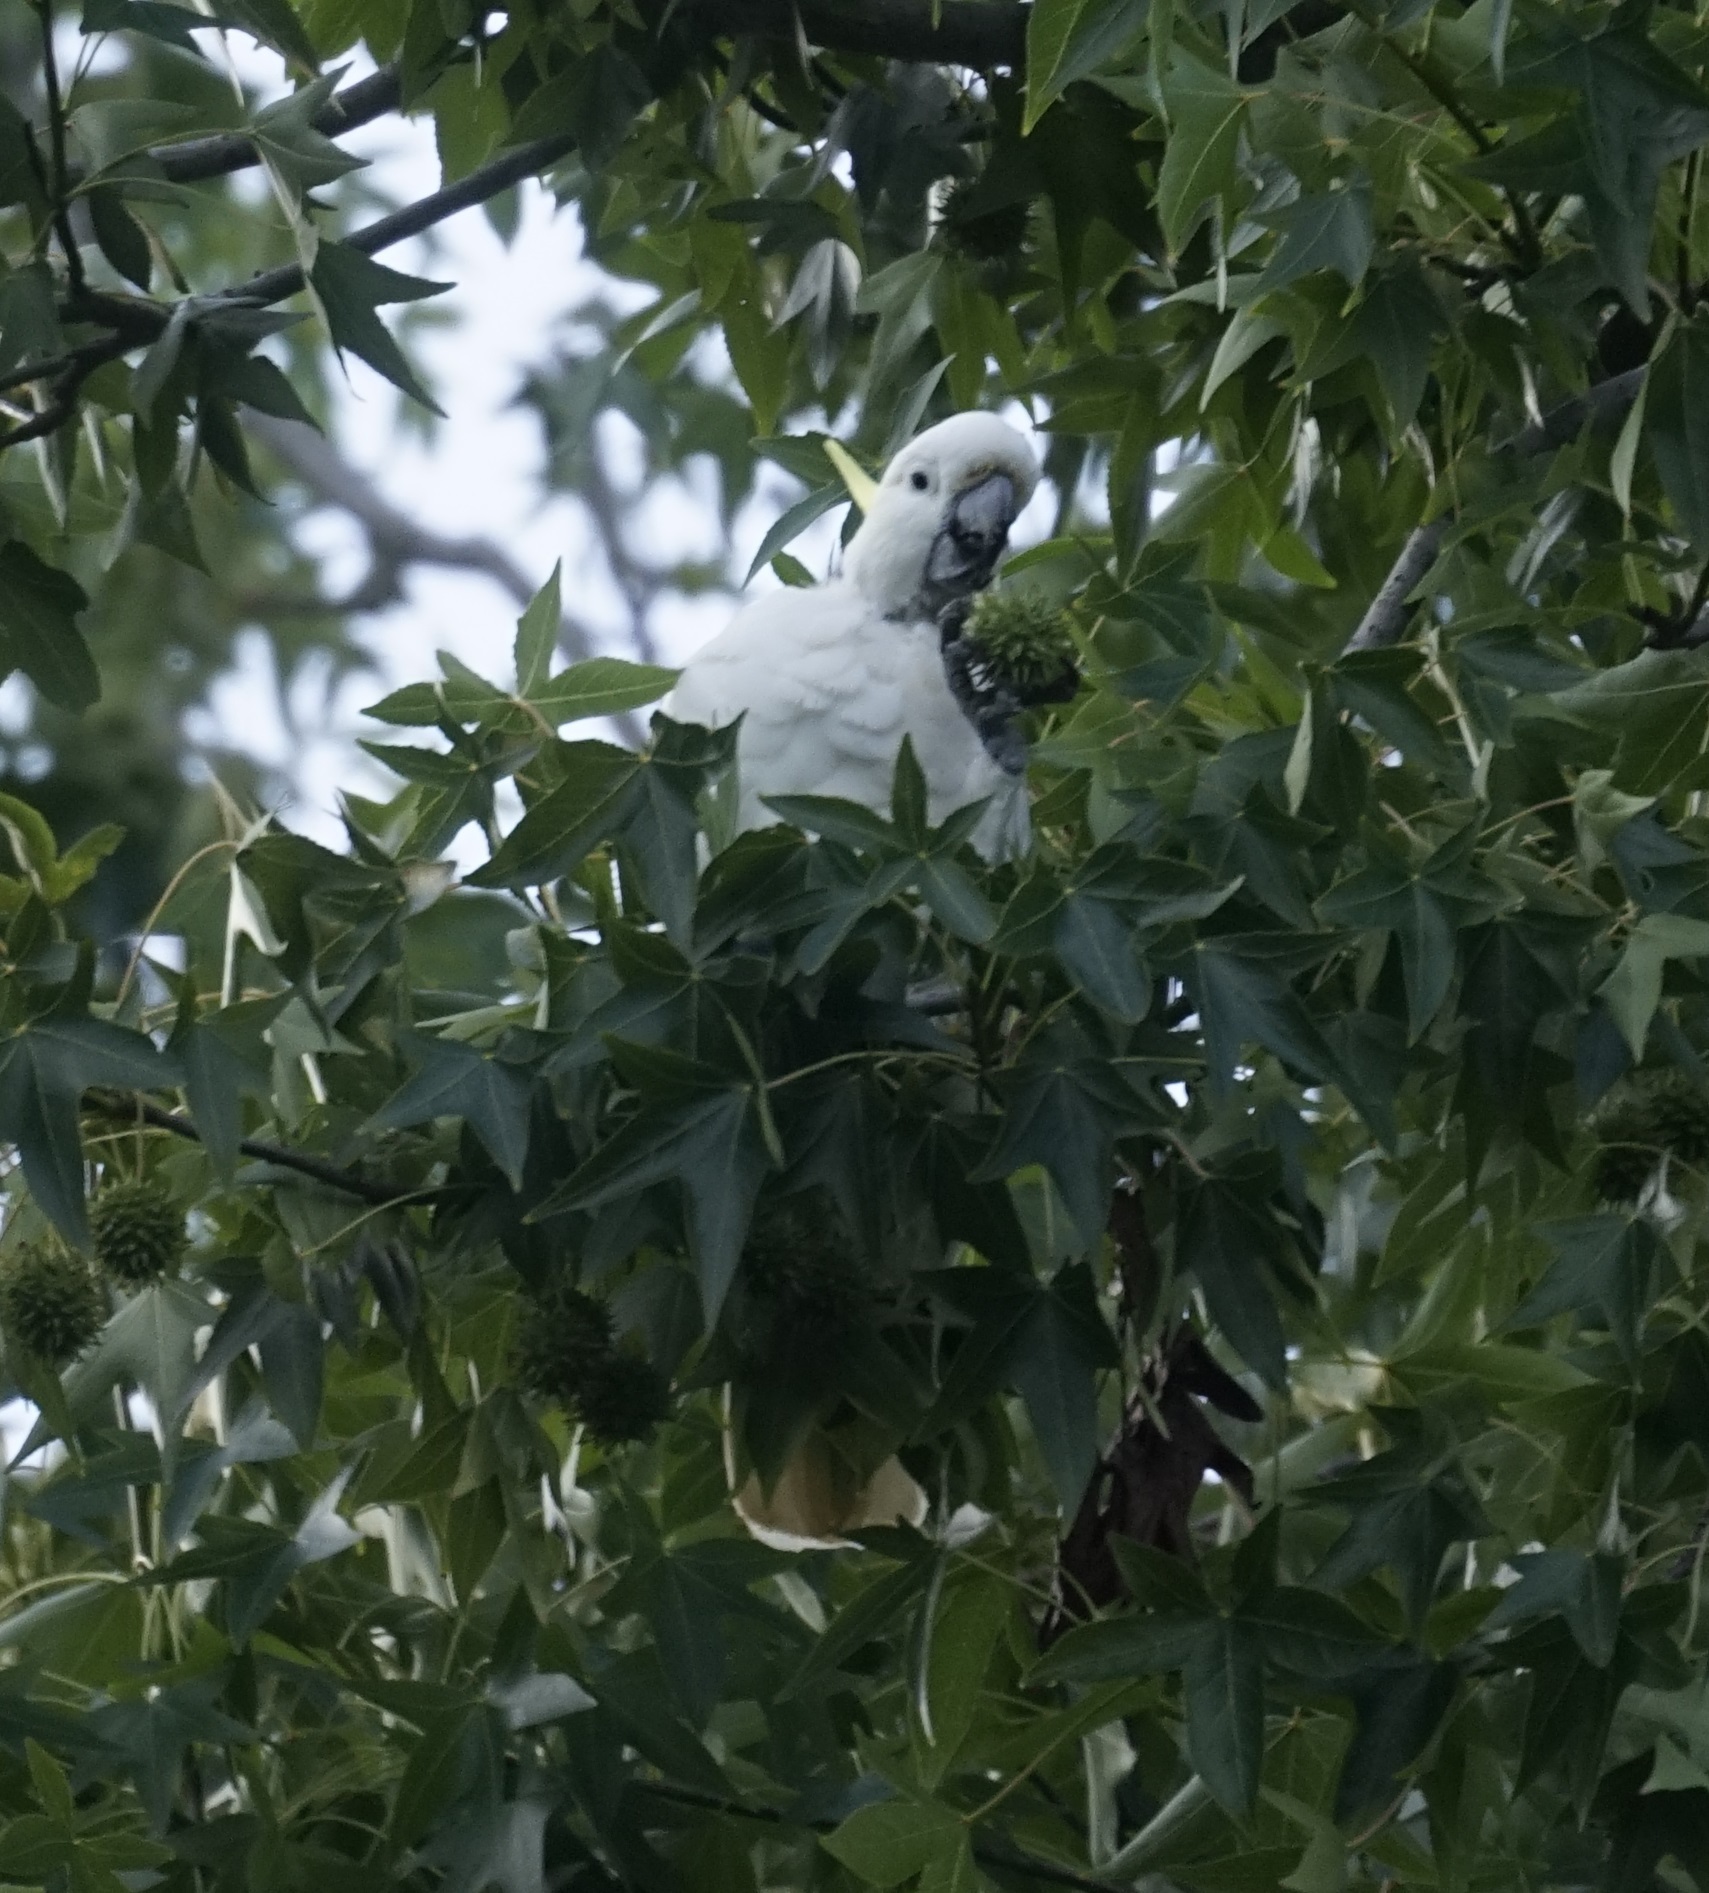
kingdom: Animalia
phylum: Chordata
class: Aves
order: Psittaciformes
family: Psittacidae
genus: Cacatua
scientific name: Cacatua galerita
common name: Sulphur-crested cockatoo
